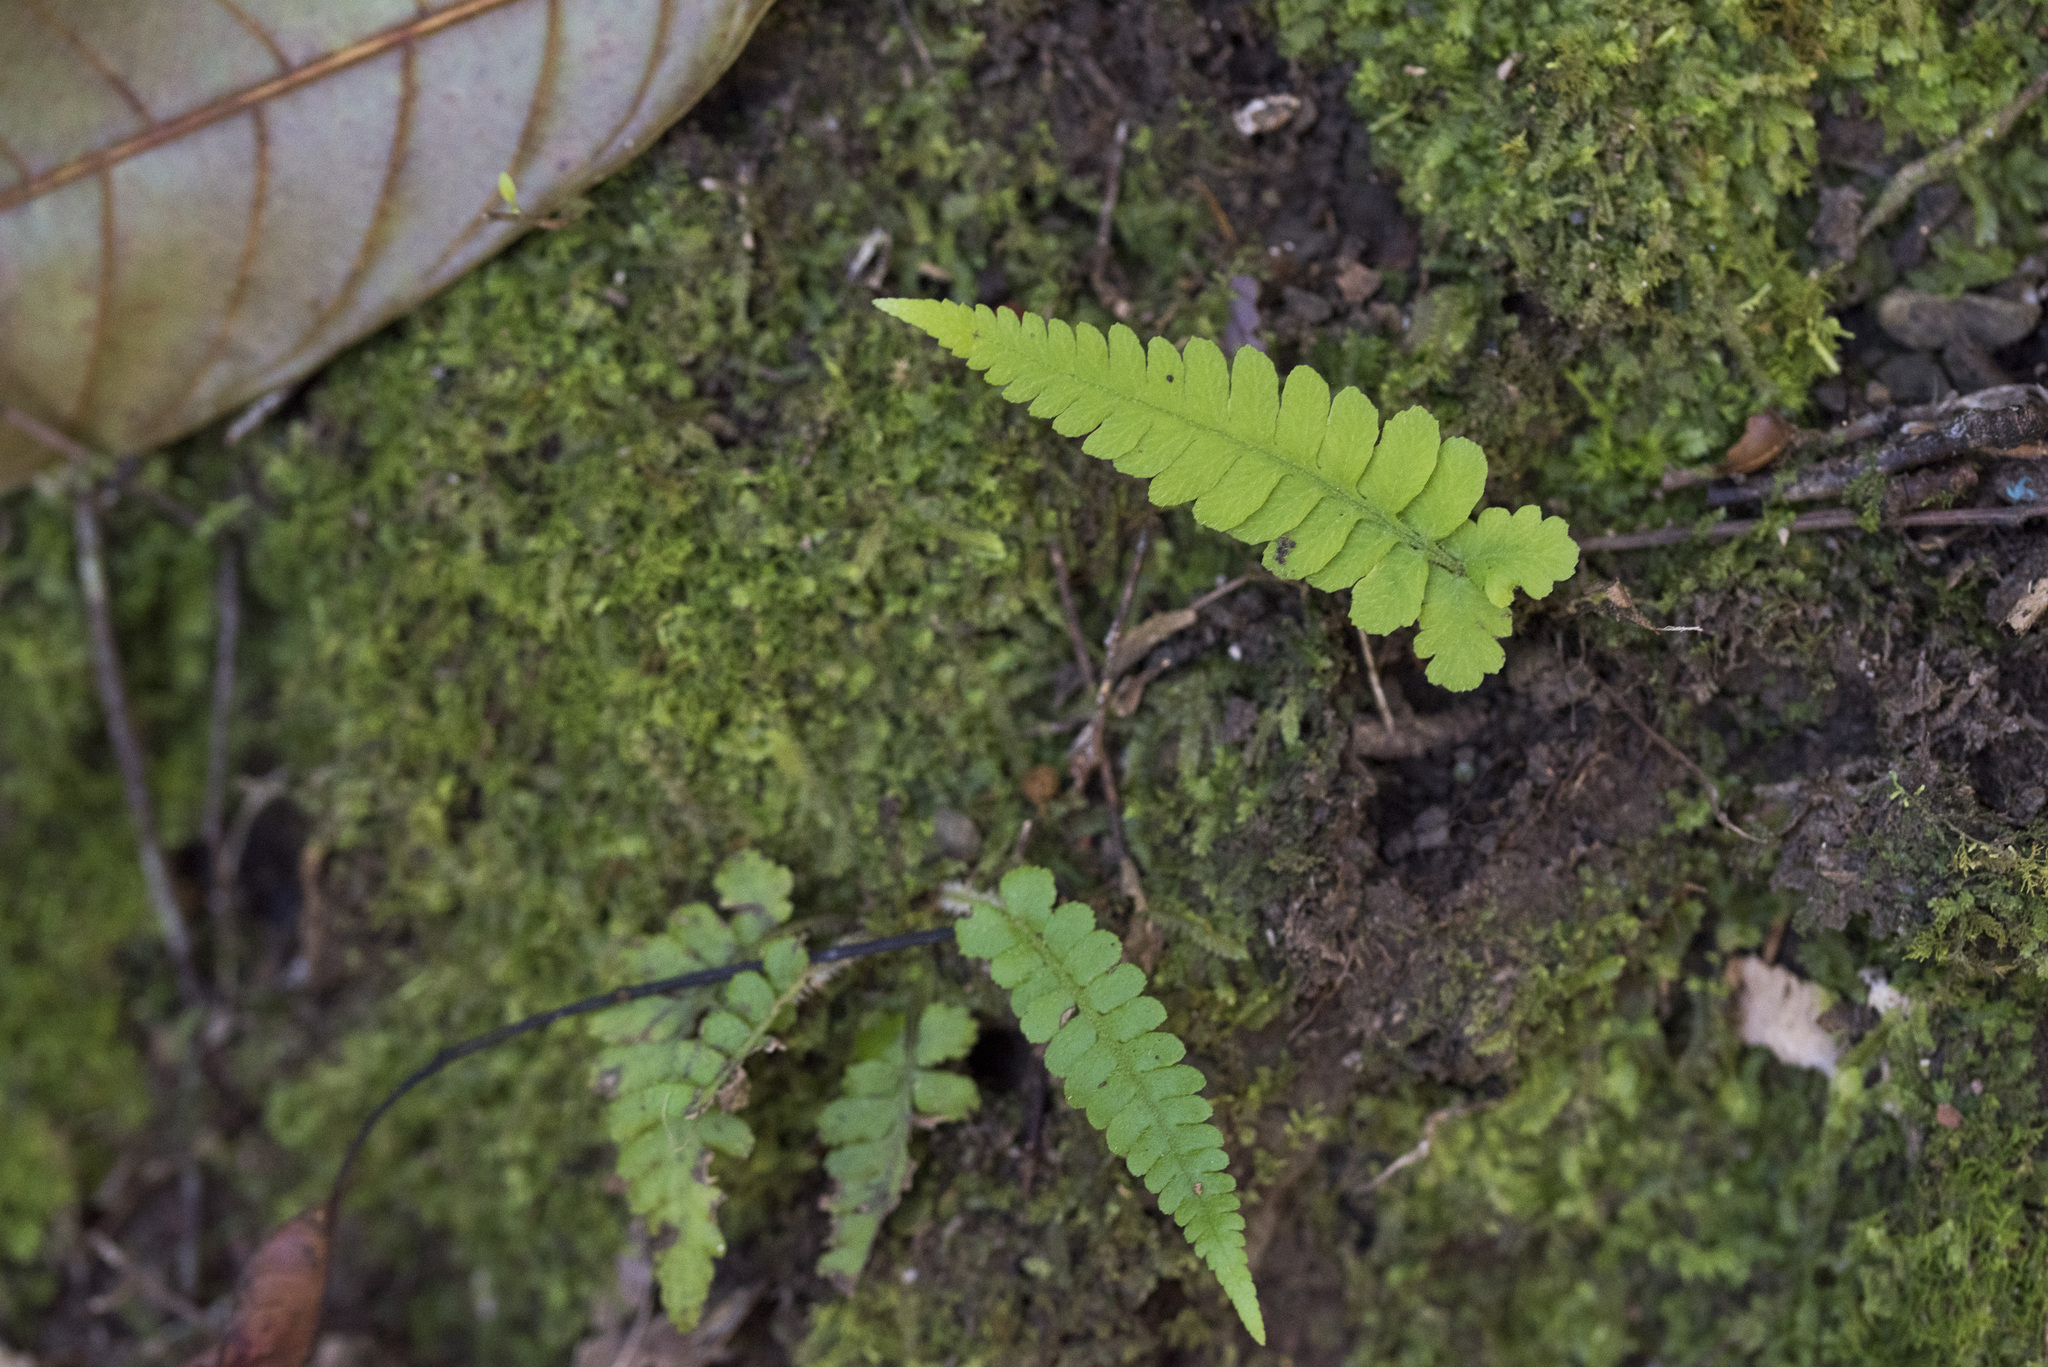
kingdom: Plantae
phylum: Tracheophyta
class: Polypodiopsida
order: Polypodiales
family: Athyriaceae
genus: Deparia
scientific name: Deparia petersenii
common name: Japanese false spleenwort
